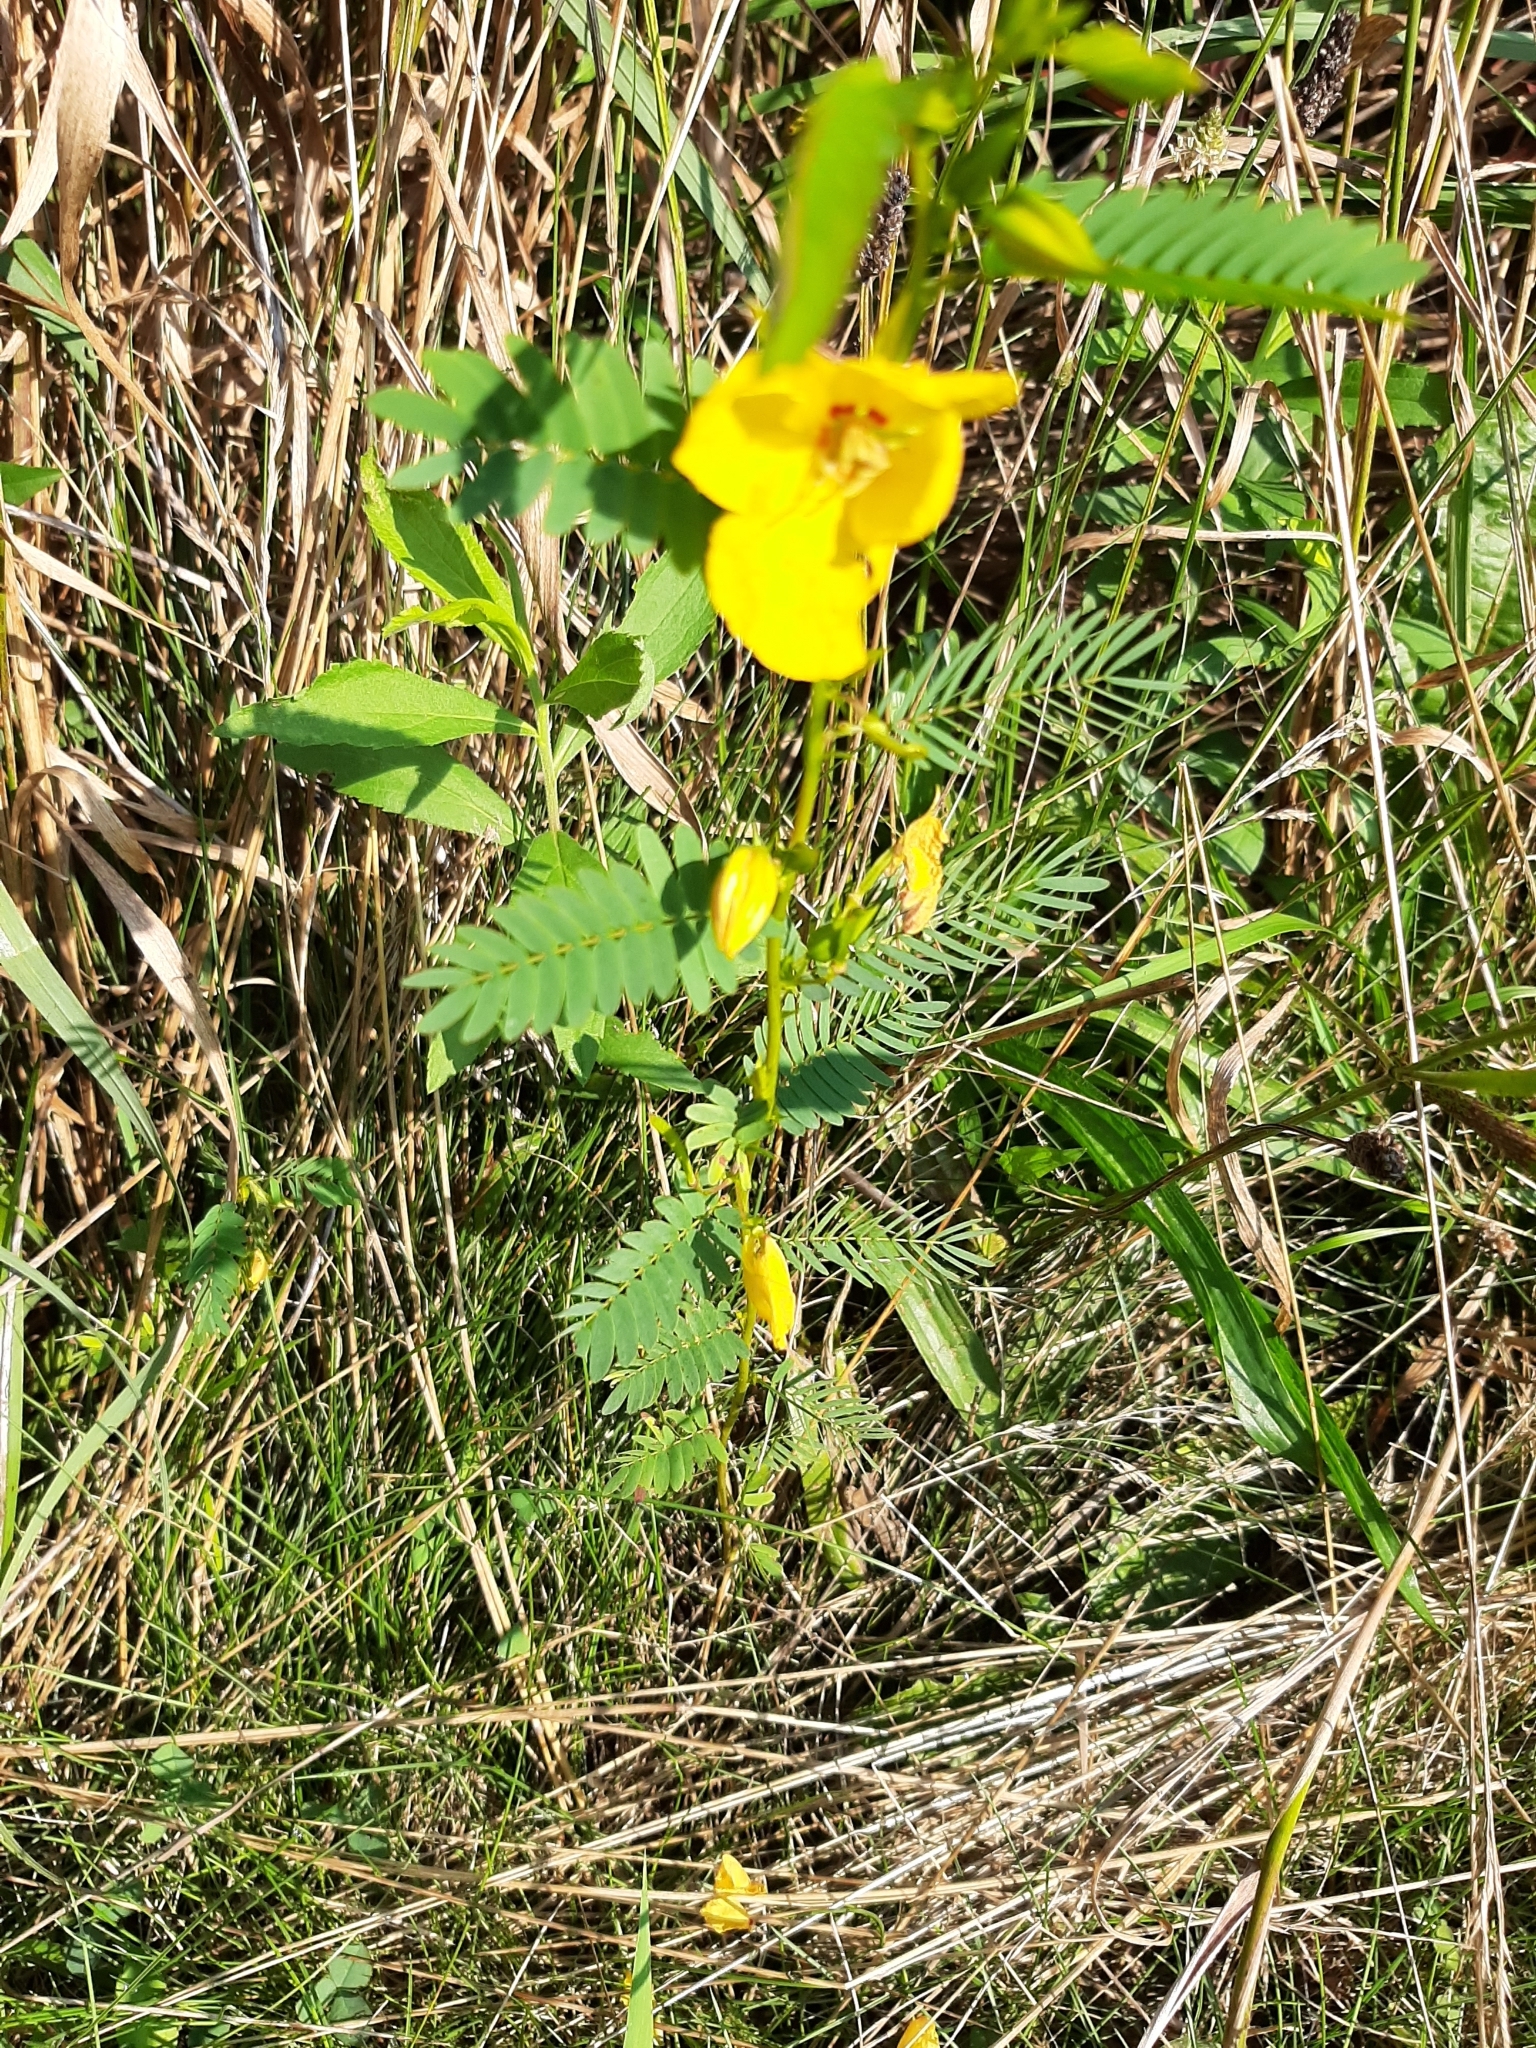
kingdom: Plantae
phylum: Tracheophyta
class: Magnoliopsida
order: Fabales
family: Fabaceae
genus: Chamaecrista
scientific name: Chamaecrista fasciculata
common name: Golden cassia
